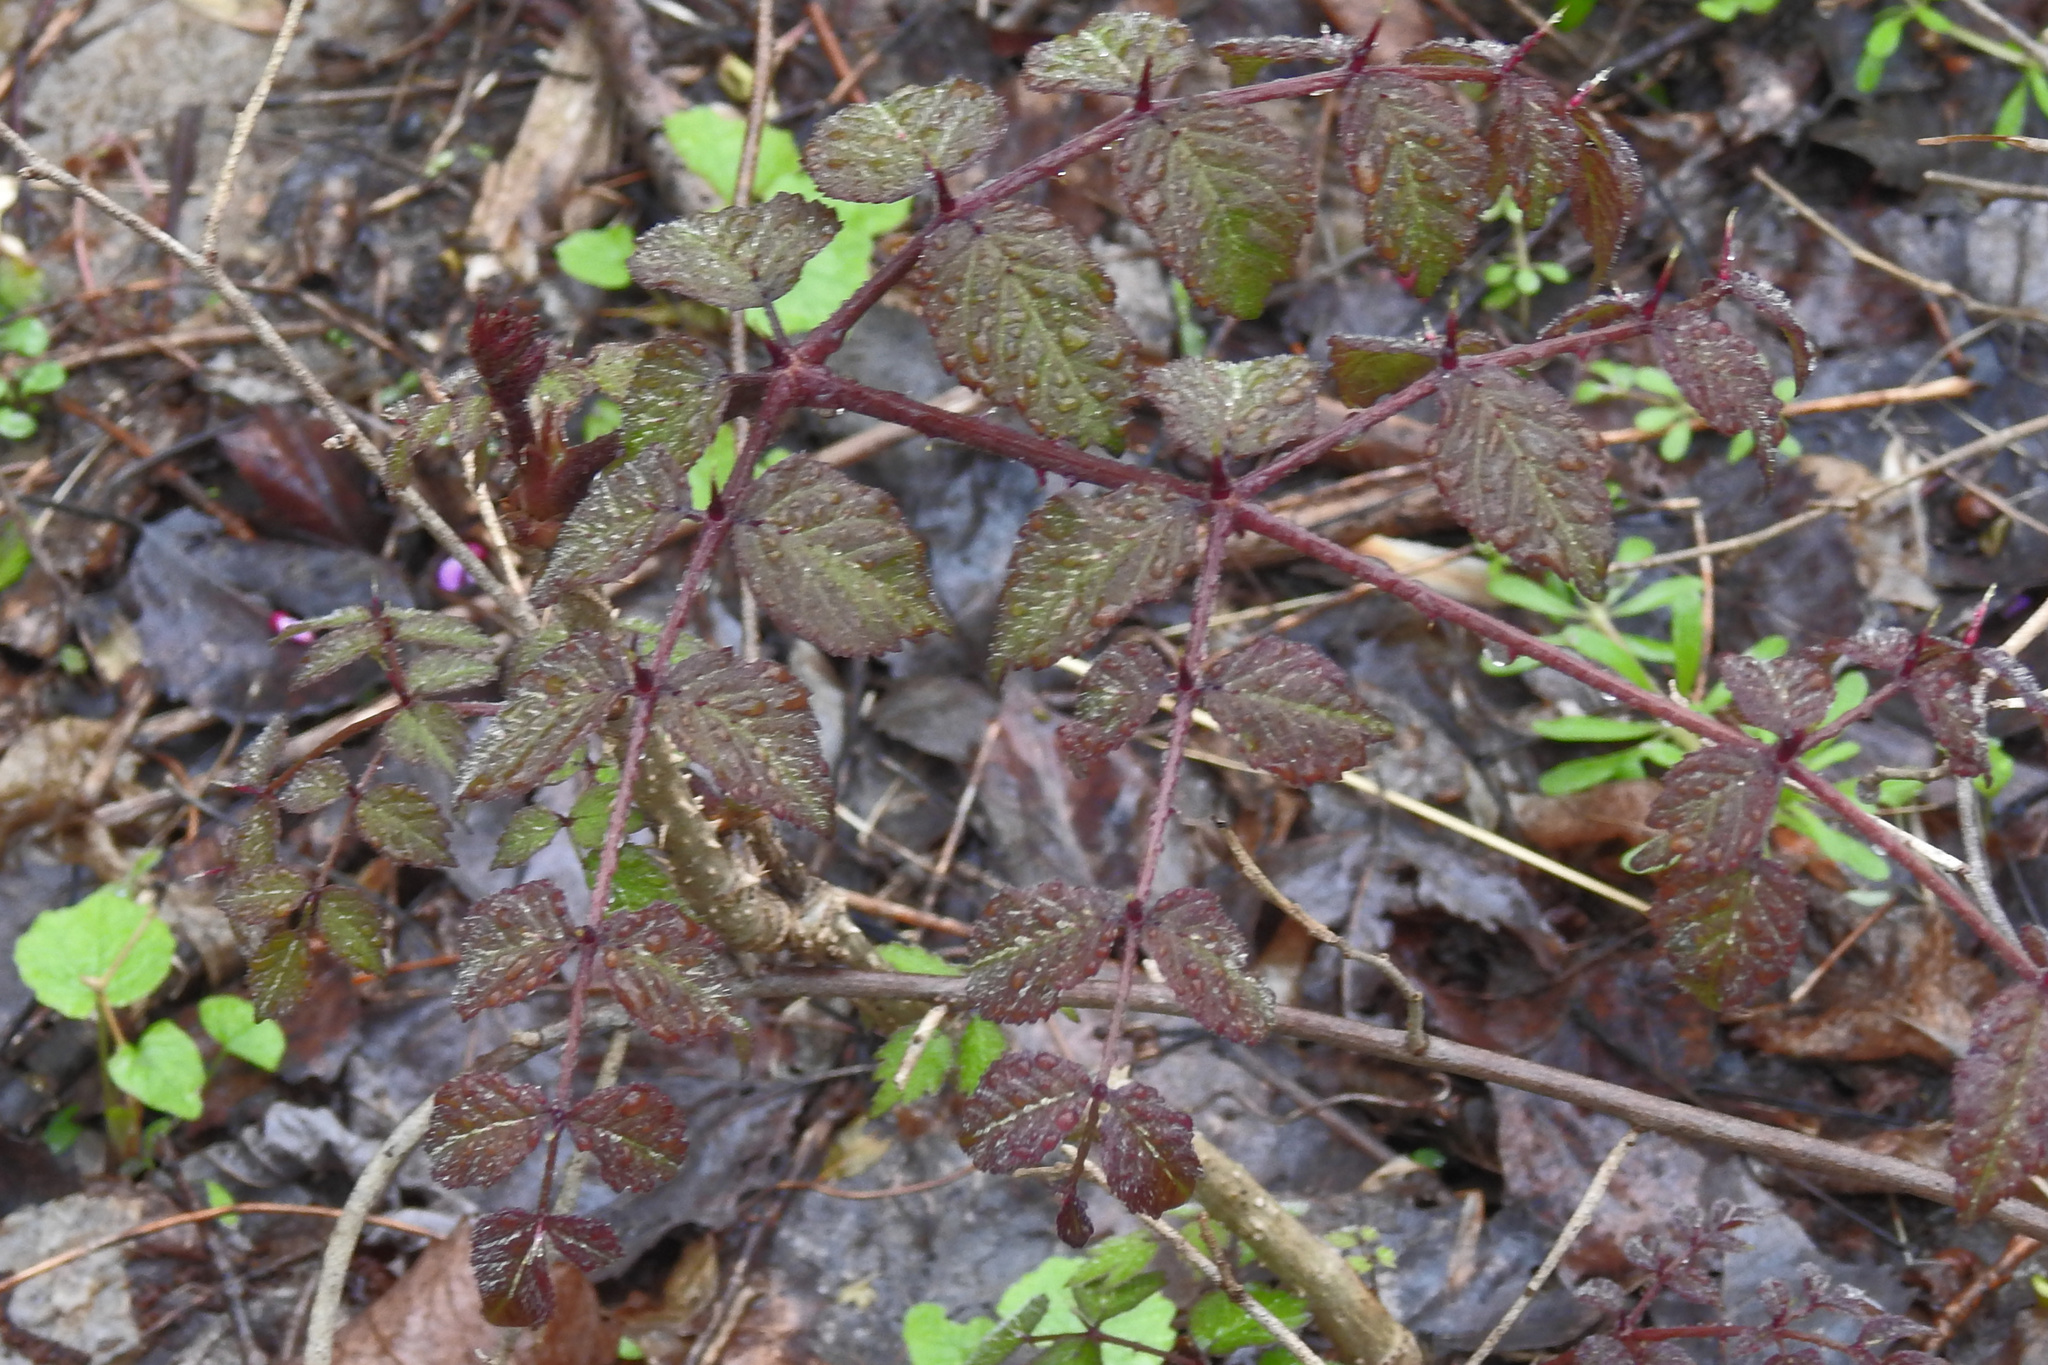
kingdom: Plantae
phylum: Tracheophyta
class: Magnoliopsida
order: Apiales
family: Araliaceae
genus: Aralia
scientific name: Aralia elata
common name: Japanese angelica-tree
